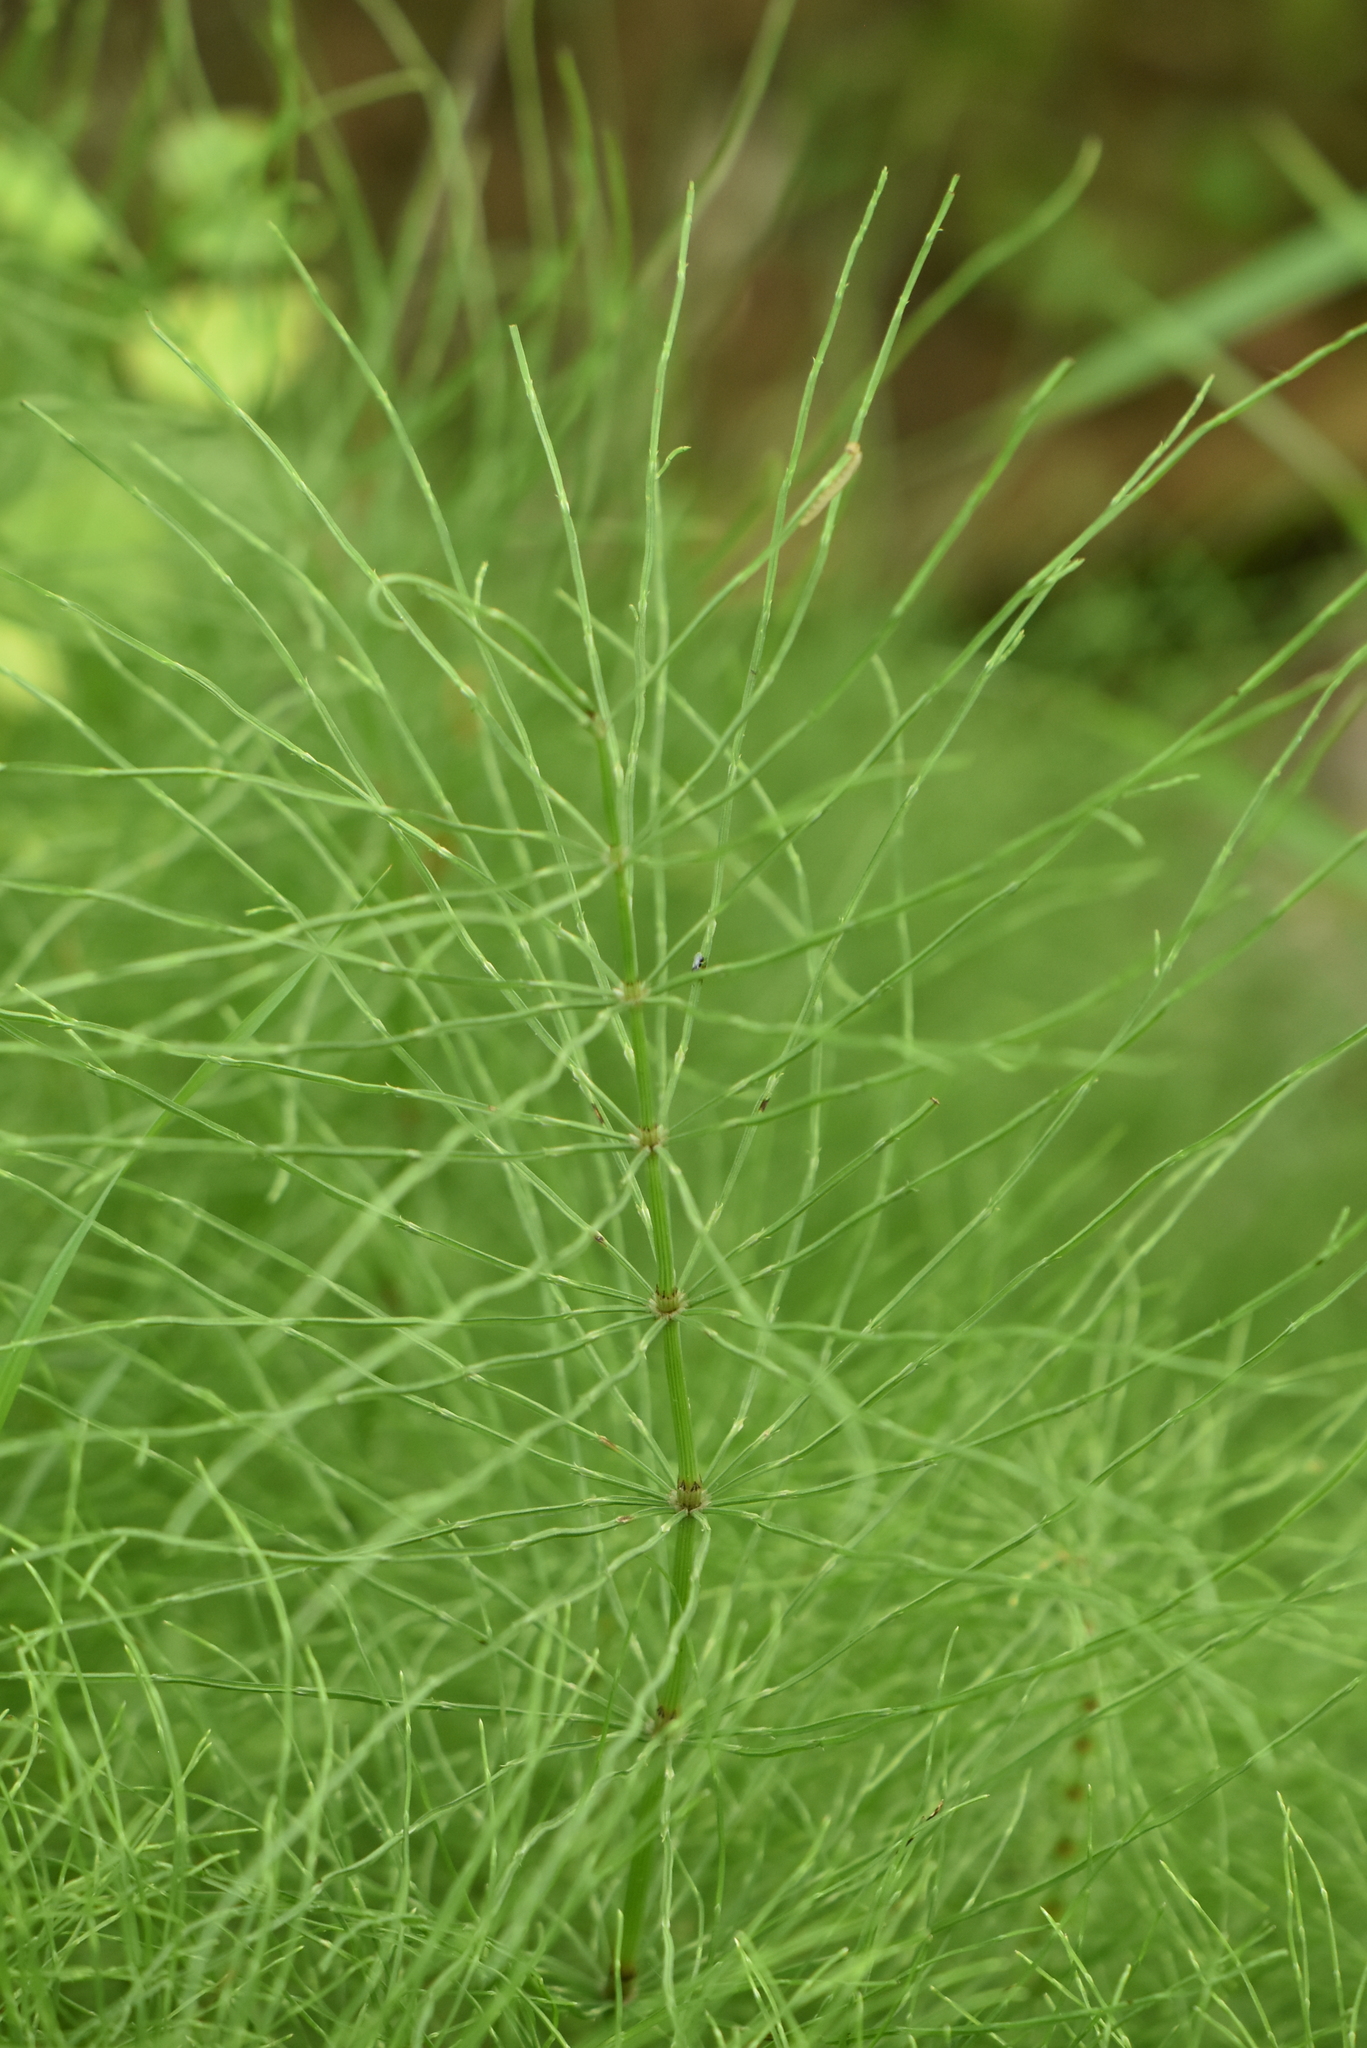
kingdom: Plantae
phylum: Tracheophyta
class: Polypodiopsida
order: Equisetales
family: Equisetaceae
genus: Equisetum
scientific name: Equisetum pratense
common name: Meadow horsetail
